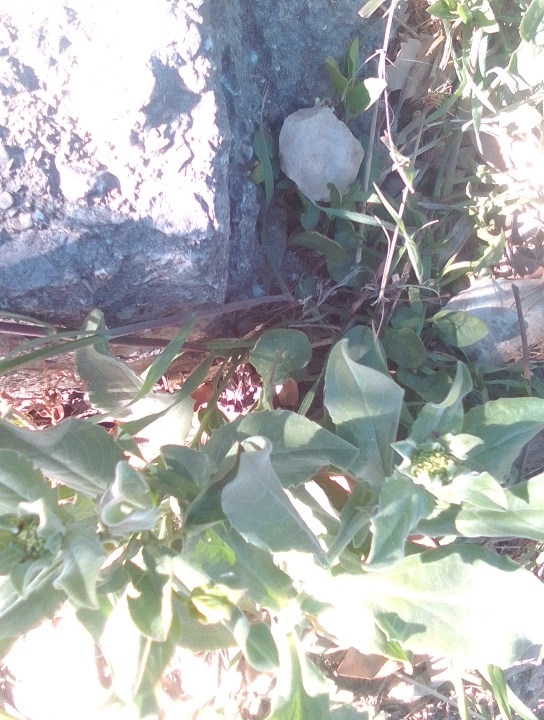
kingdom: Plantae
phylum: Tracheophyta
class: Magnoliopsida
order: Brassicales
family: Brassicaceae
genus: Lepidium
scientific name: Lepidium draba
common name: Hoary cress
